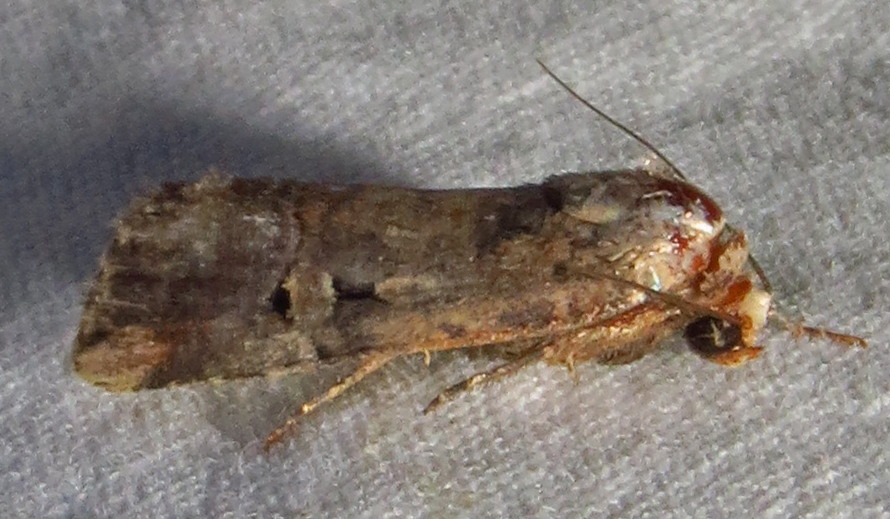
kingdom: Animalia
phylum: Arthropoda
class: Insecta
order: Lepidoptera
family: Noctuidae
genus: Elaphria
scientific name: Elaphria chalcedonia
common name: Chalcedony midget
